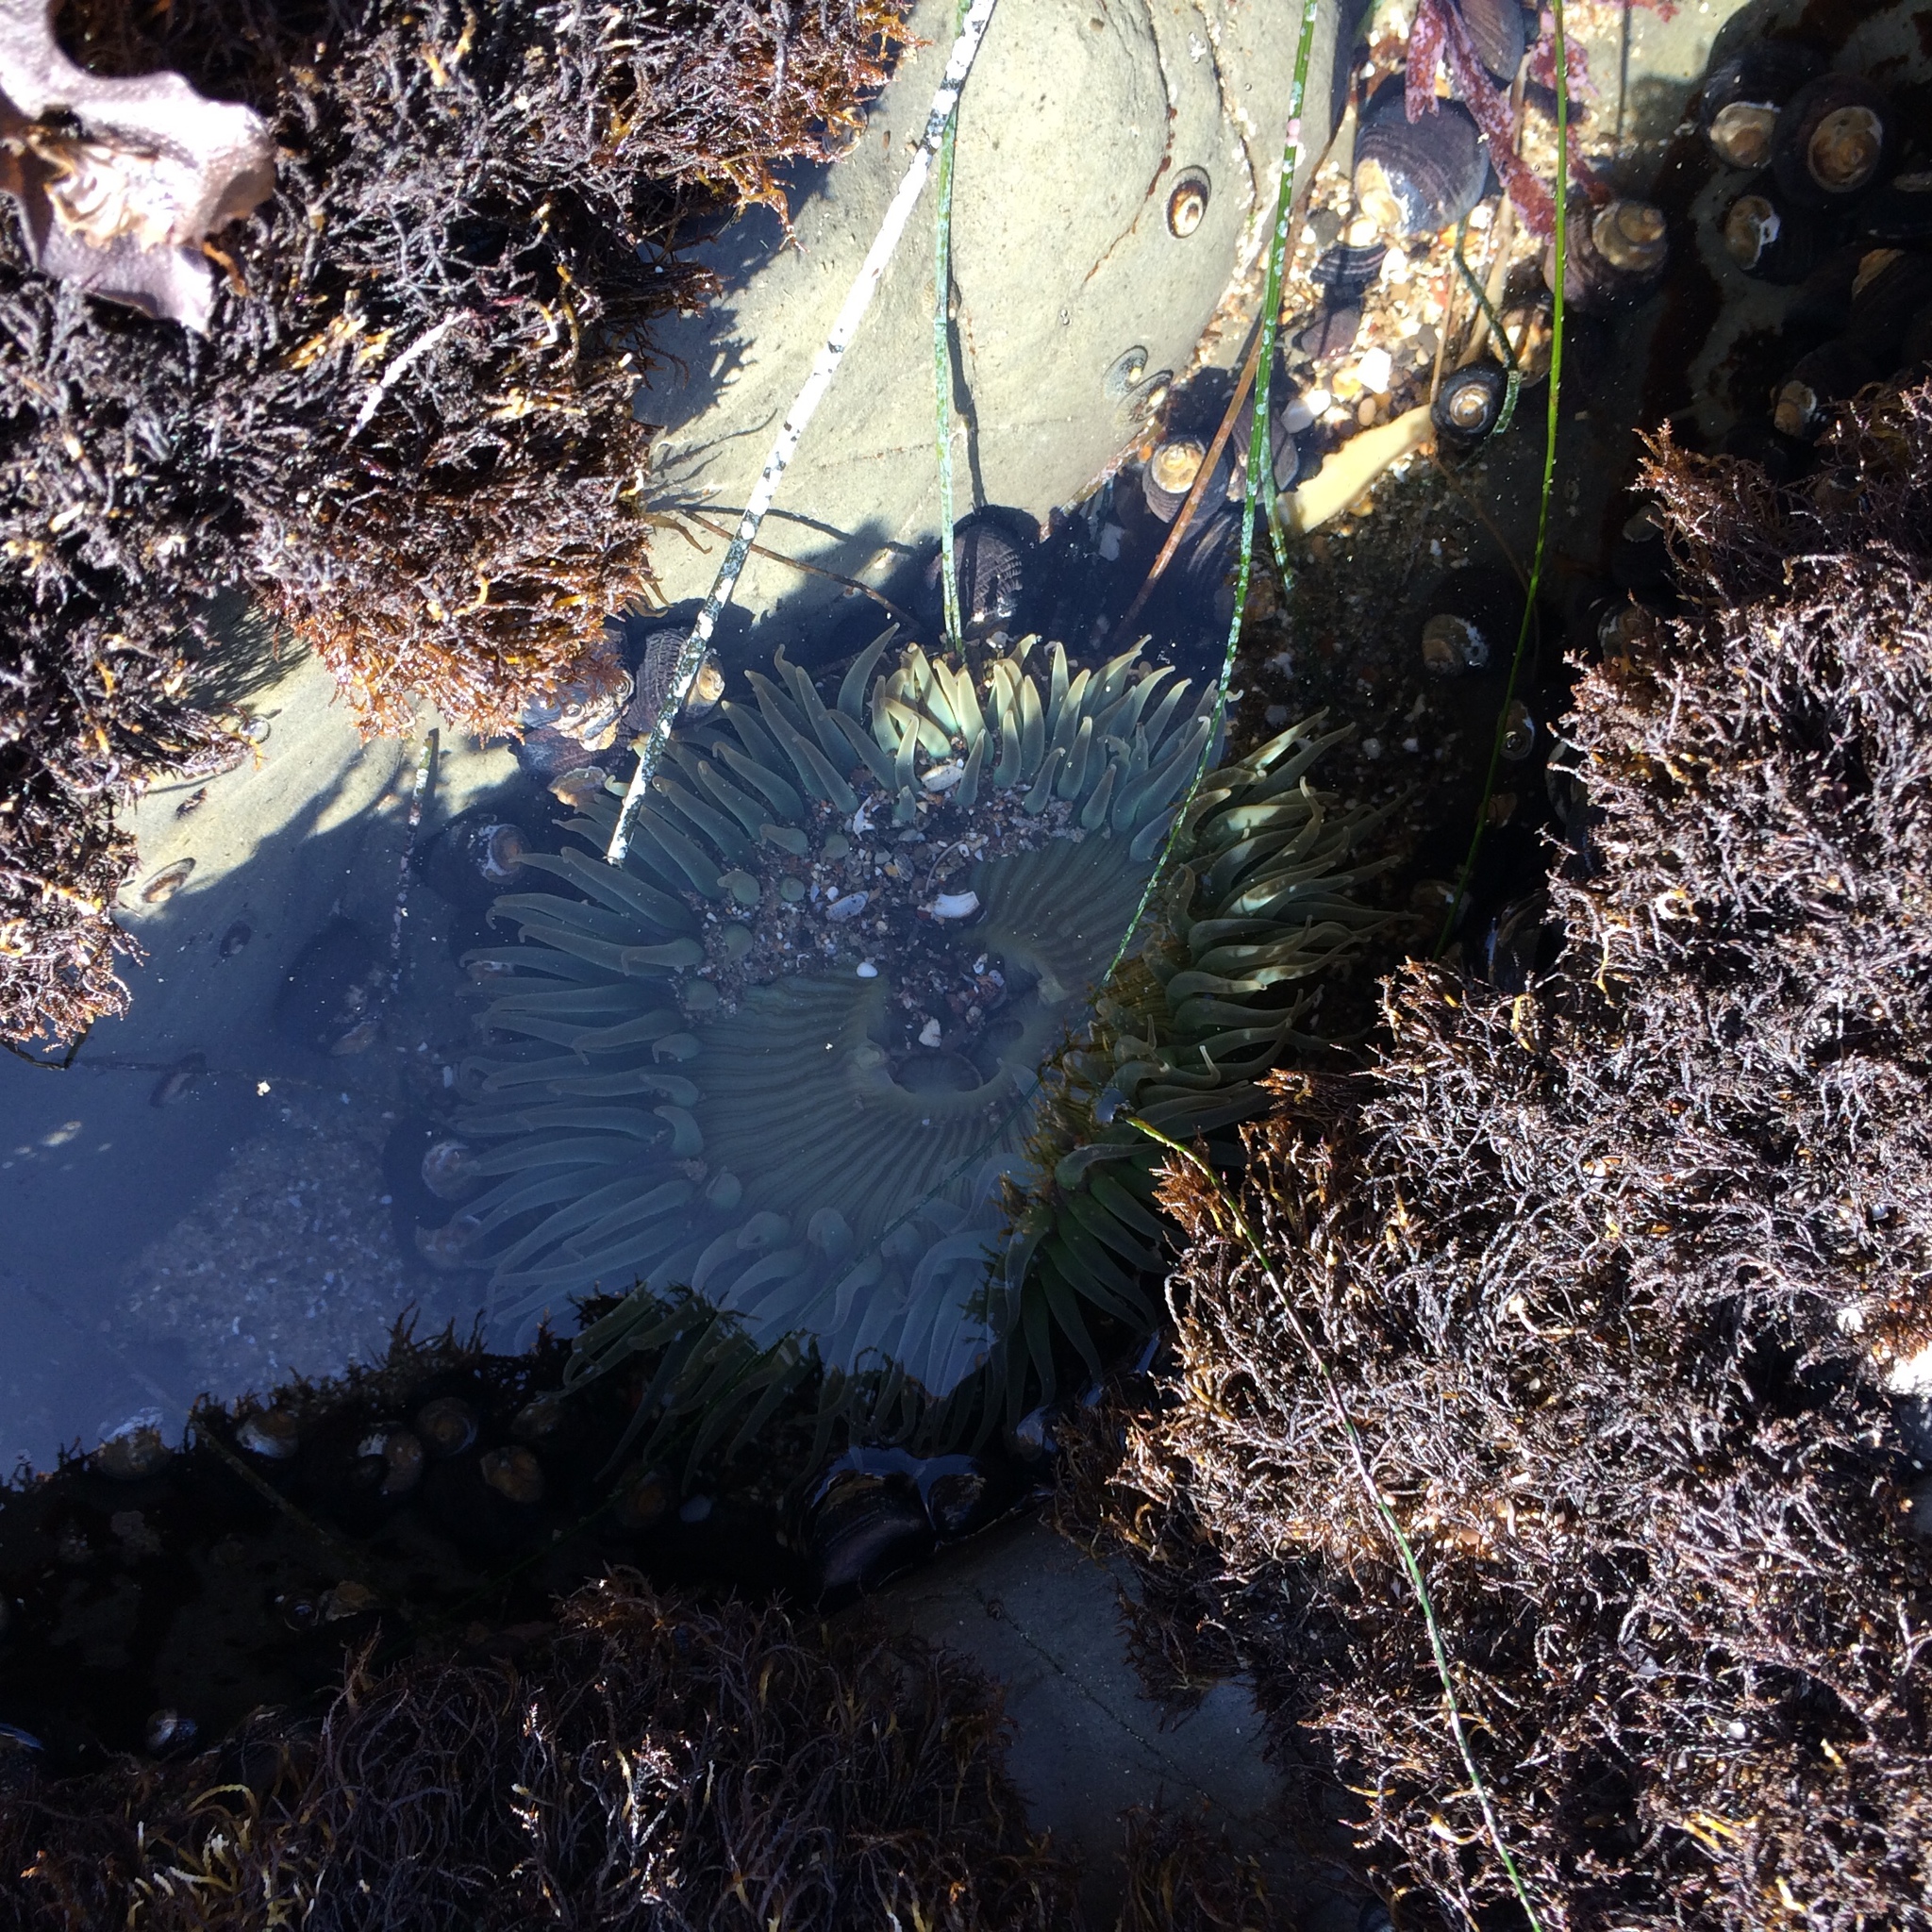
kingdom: Animalia
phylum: Cnidaria
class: Anthozoa
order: Actiniaria
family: Actiniidae
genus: Anthopleura
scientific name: Anthopleura sola
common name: Sun anemone
